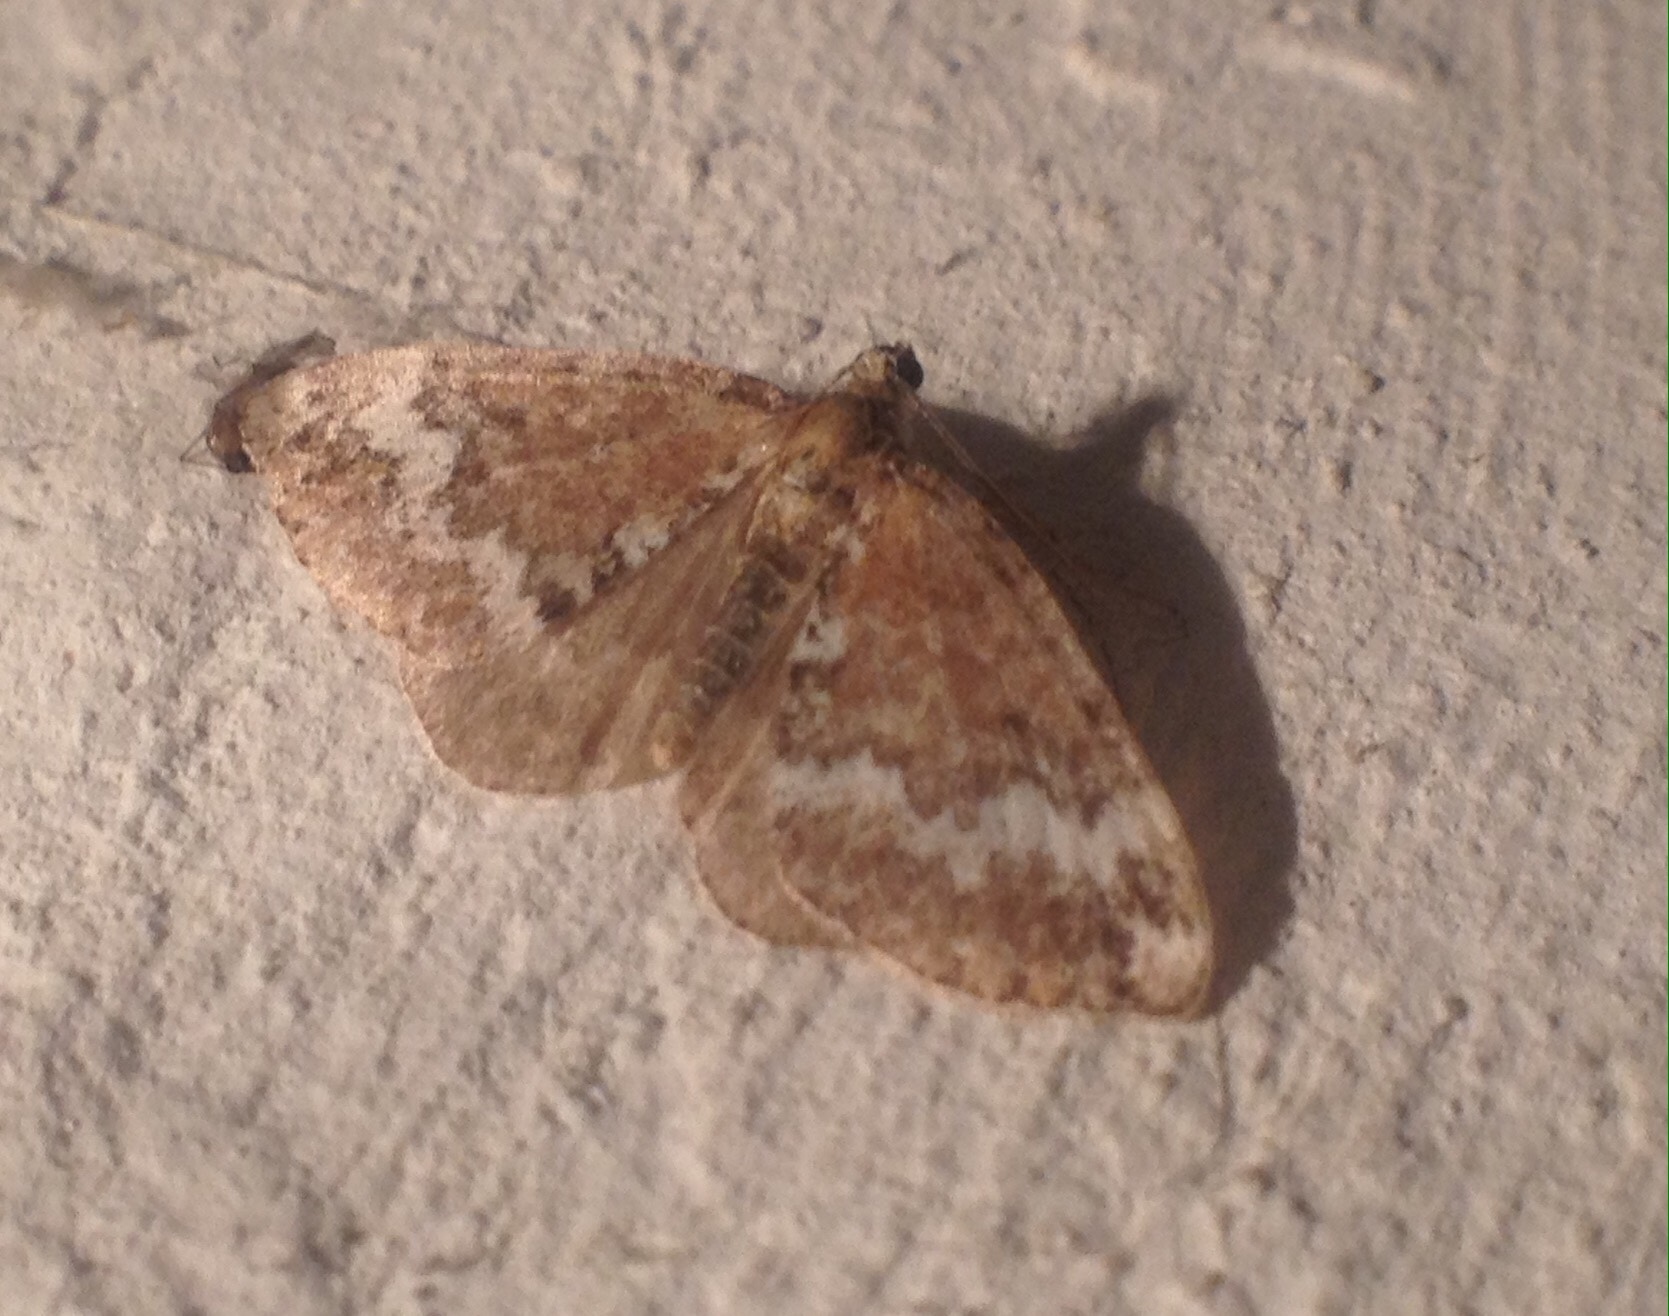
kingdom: Animalia
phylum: Arthropoda
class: Insecta
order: Lepidoptera
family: Geometridae
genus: Perizoma
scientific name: Perizoma alchemillata
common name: Small rivulet
